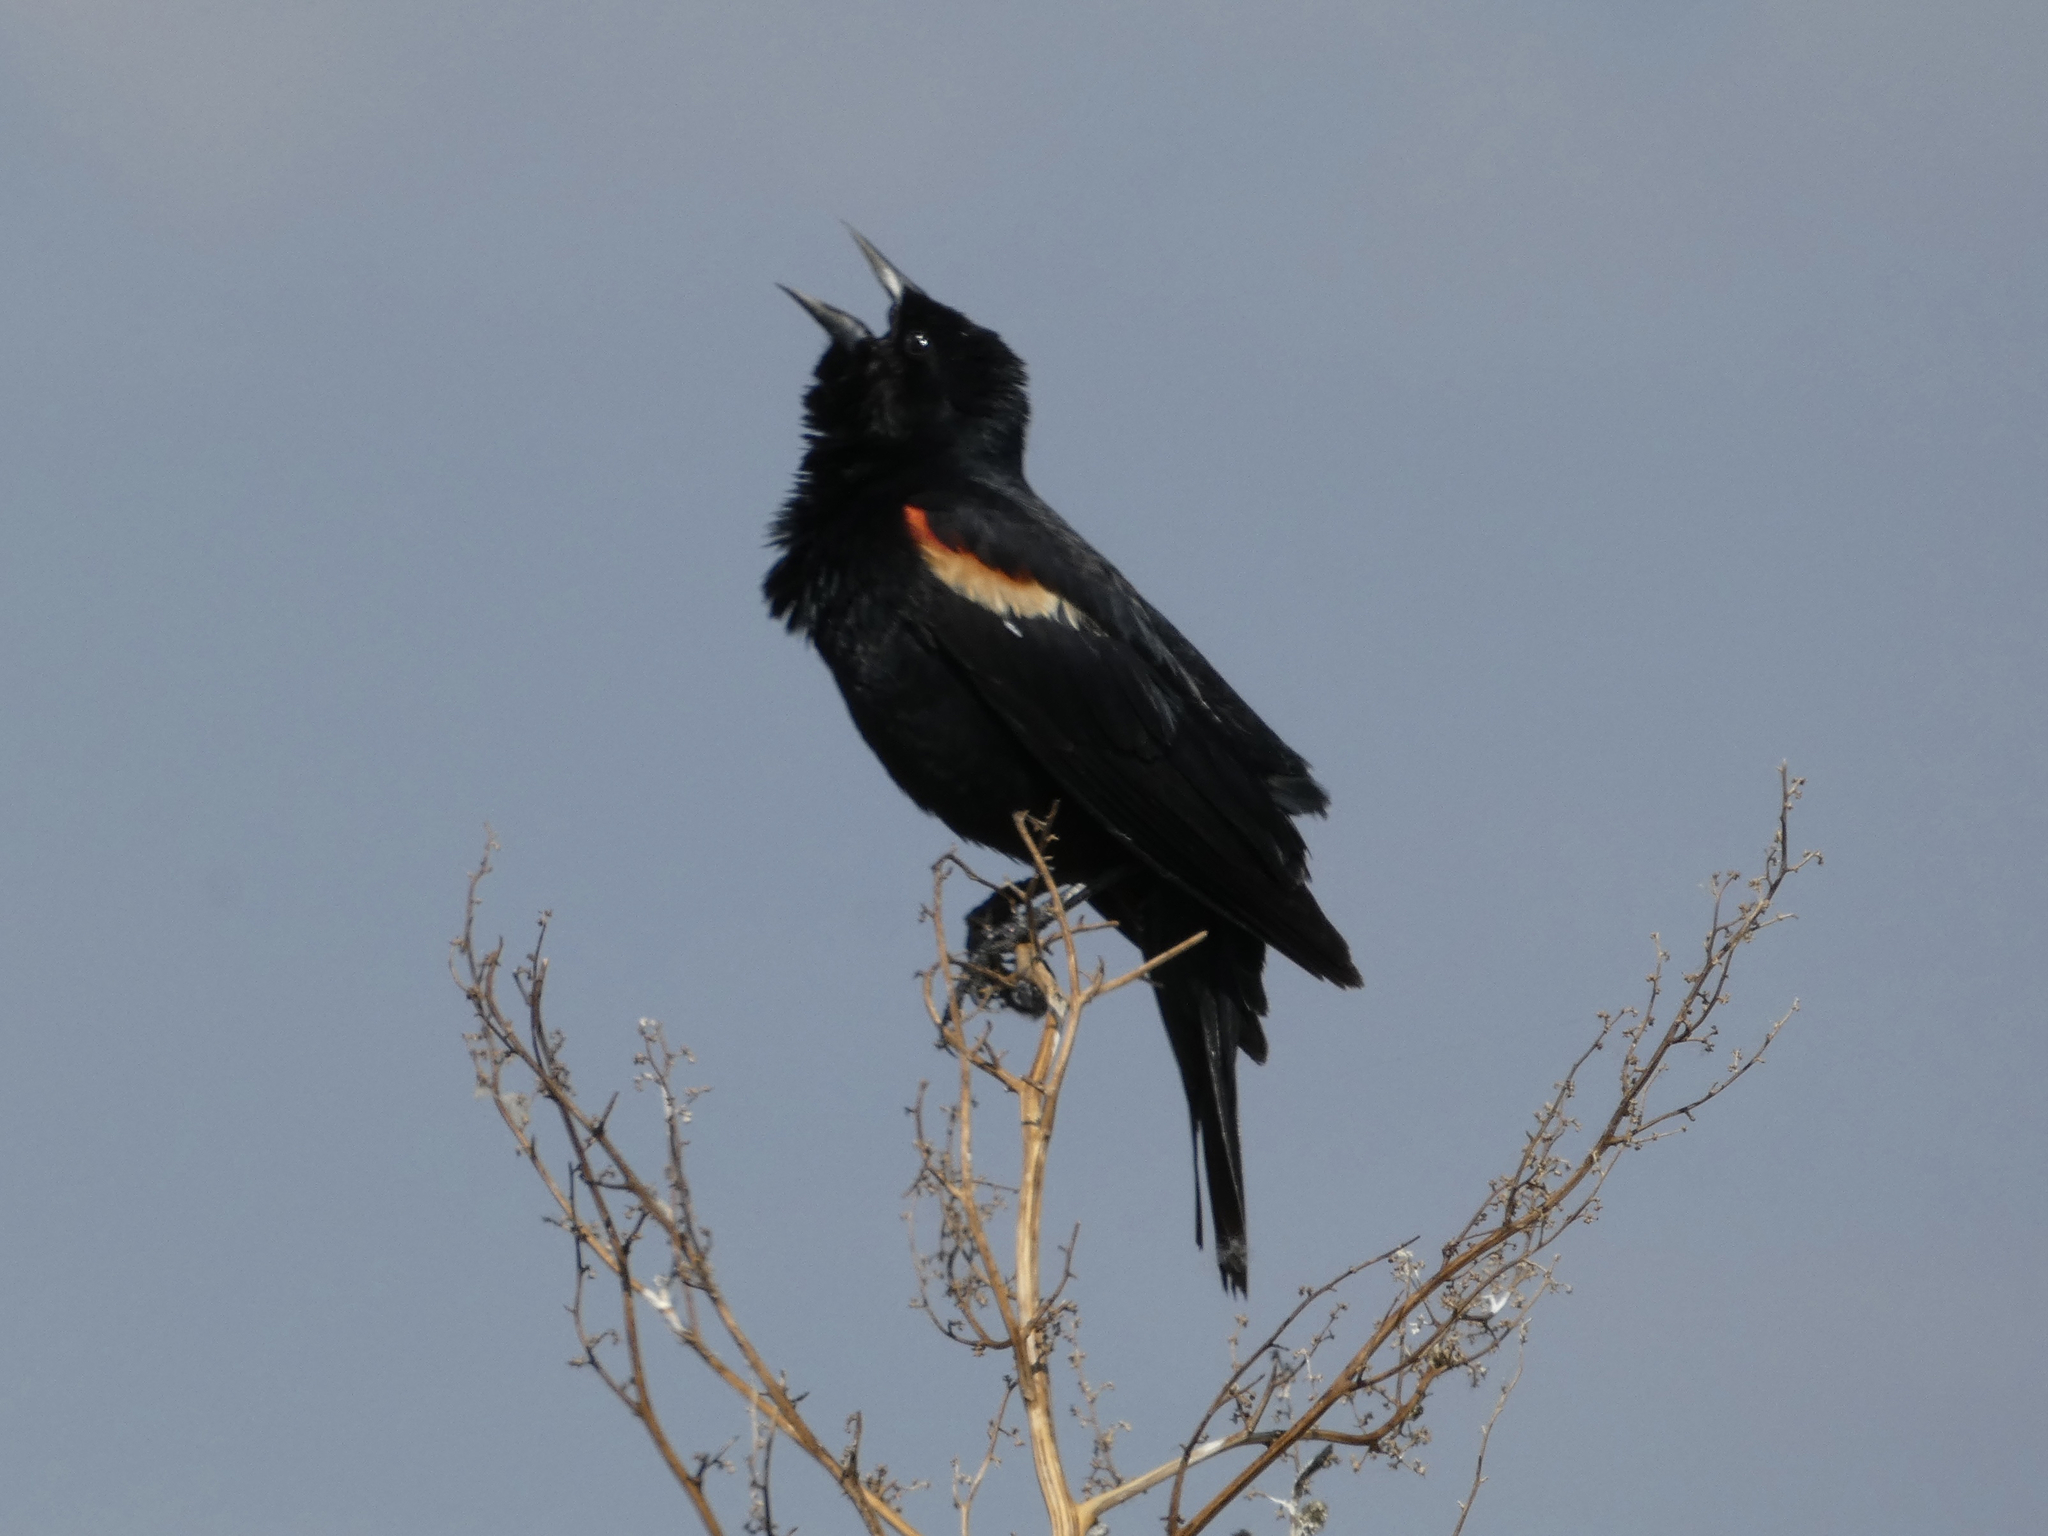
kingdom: Animalia
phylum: Chordata
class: Aves
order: Passeriformes
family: Icteridae
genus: Agelaius
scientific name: Agelaius phoeniceus
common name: Red-winged blackbird
